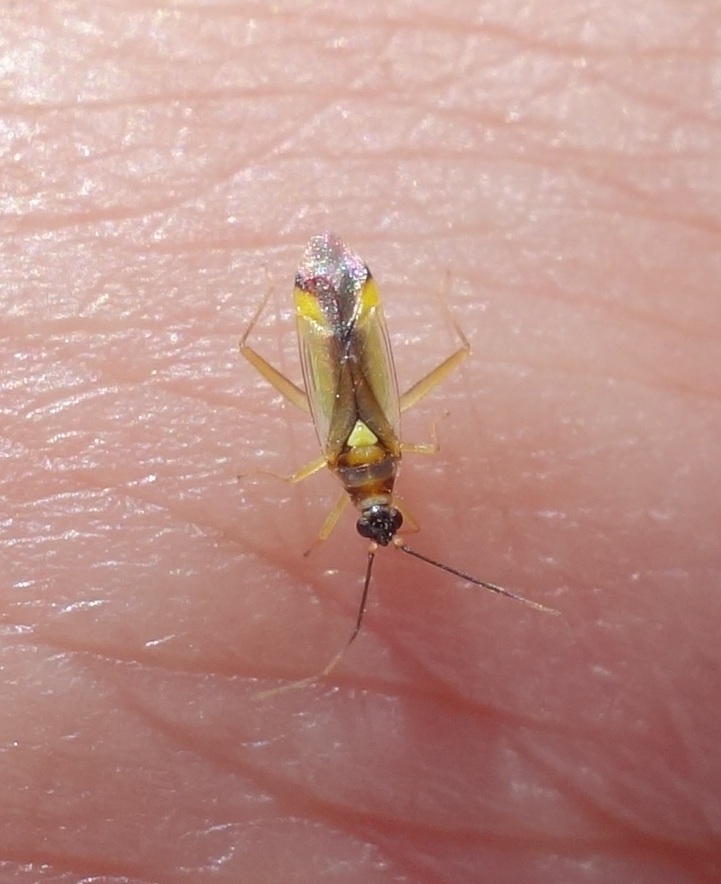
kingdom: Animalia
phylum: Arthropoda
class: Insecta
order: Hemiptera
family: Miridae
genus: Campyloneura
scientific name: Campyloneura virgula
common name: Predatory bug
